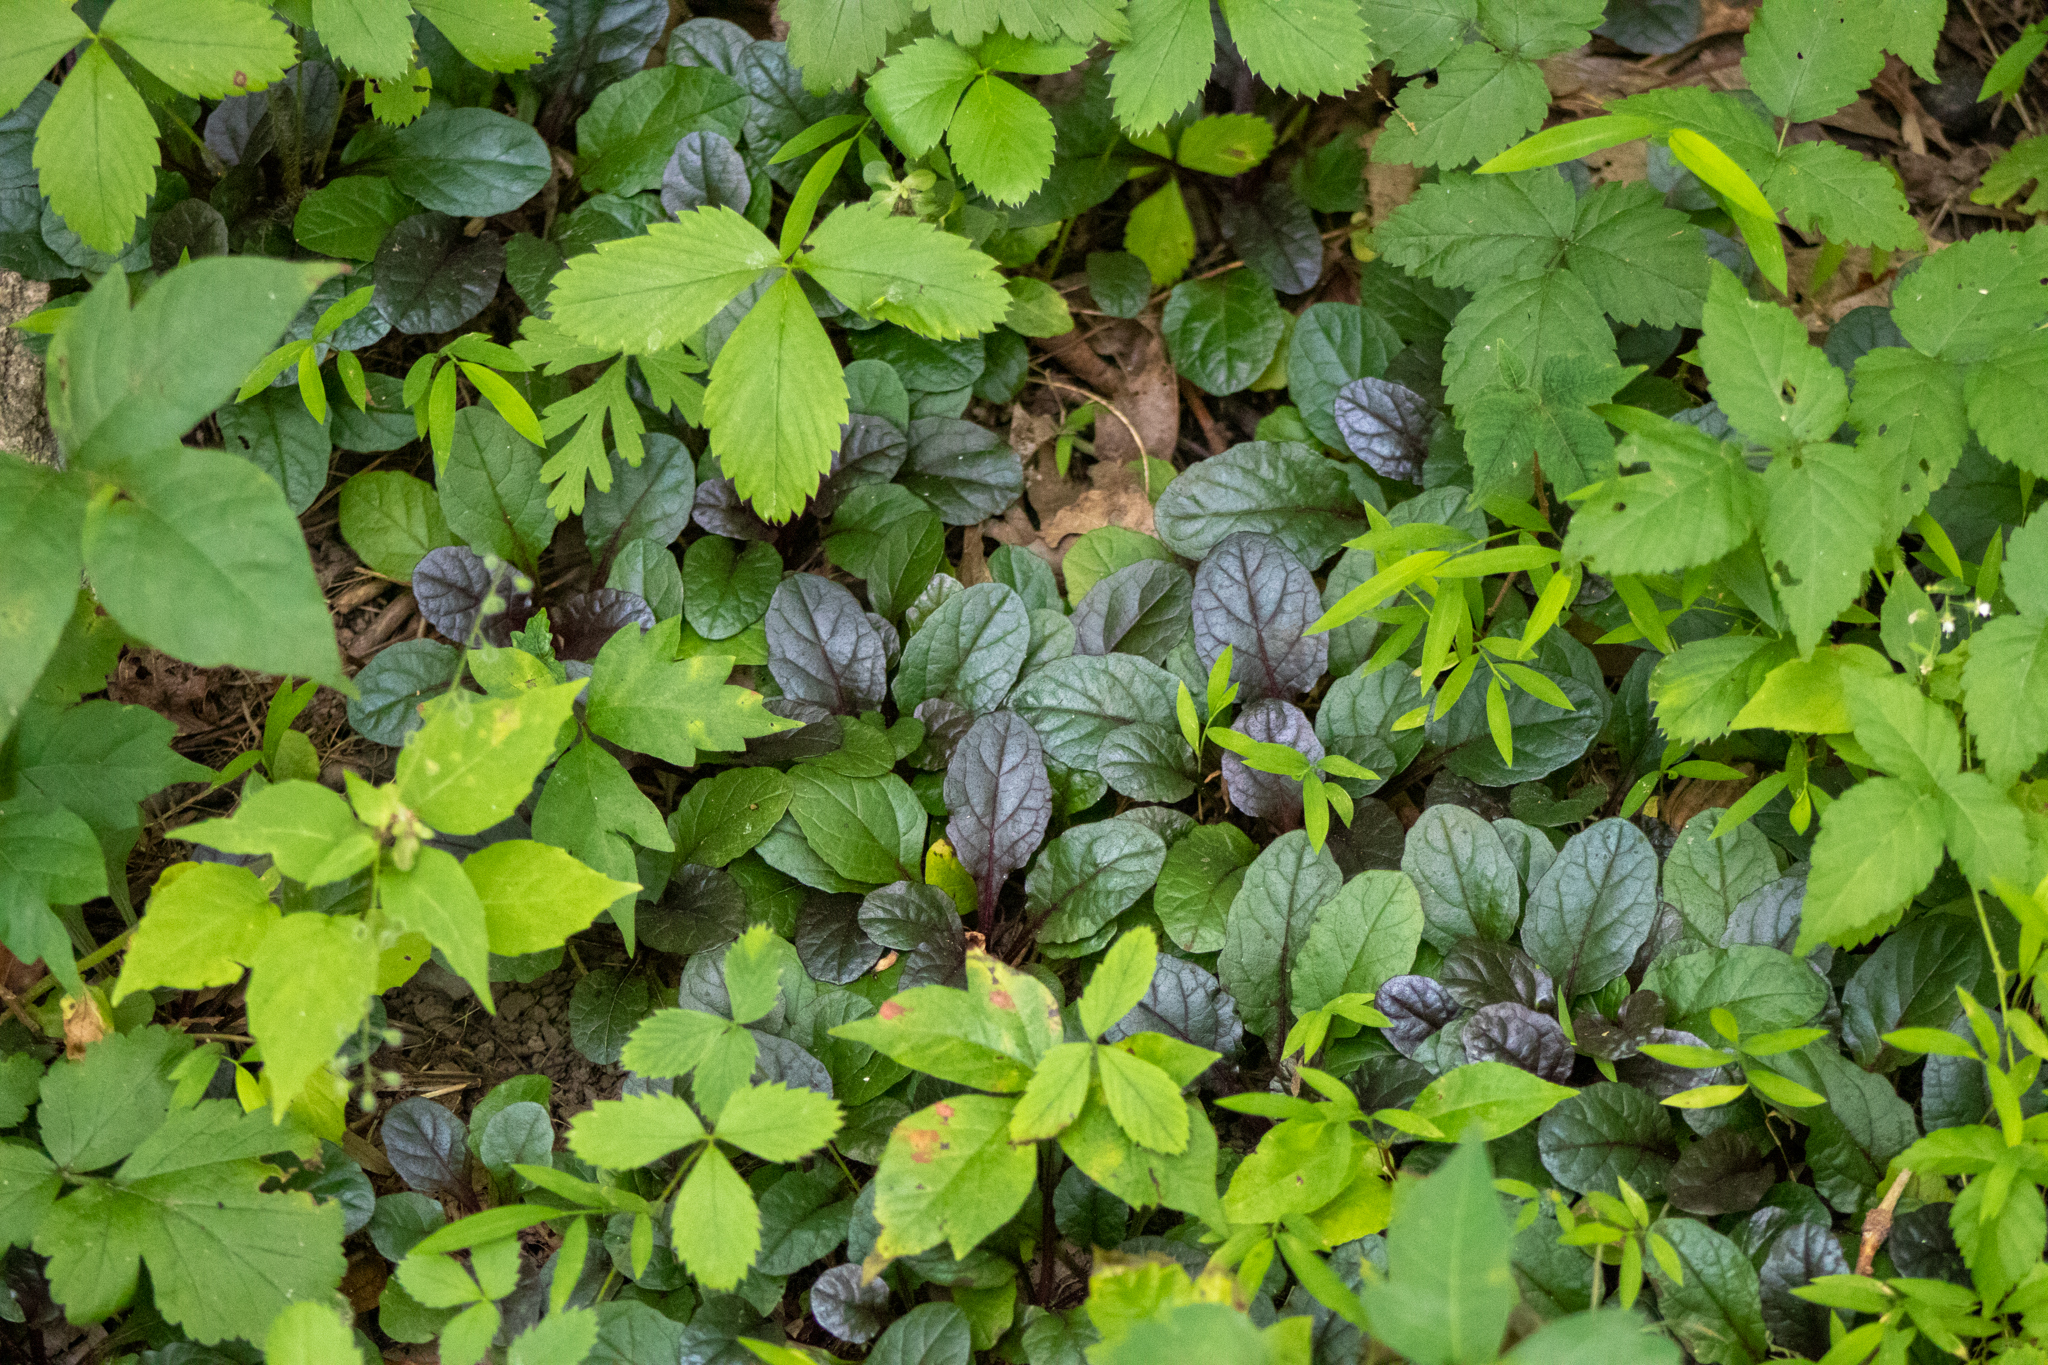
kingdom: Plantae
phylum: Tracheophyta
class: Magnoliopsida
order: Lamiales
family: Lamiaceae
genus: Ajuga
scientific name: Ajuga reptans
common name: Bugle
